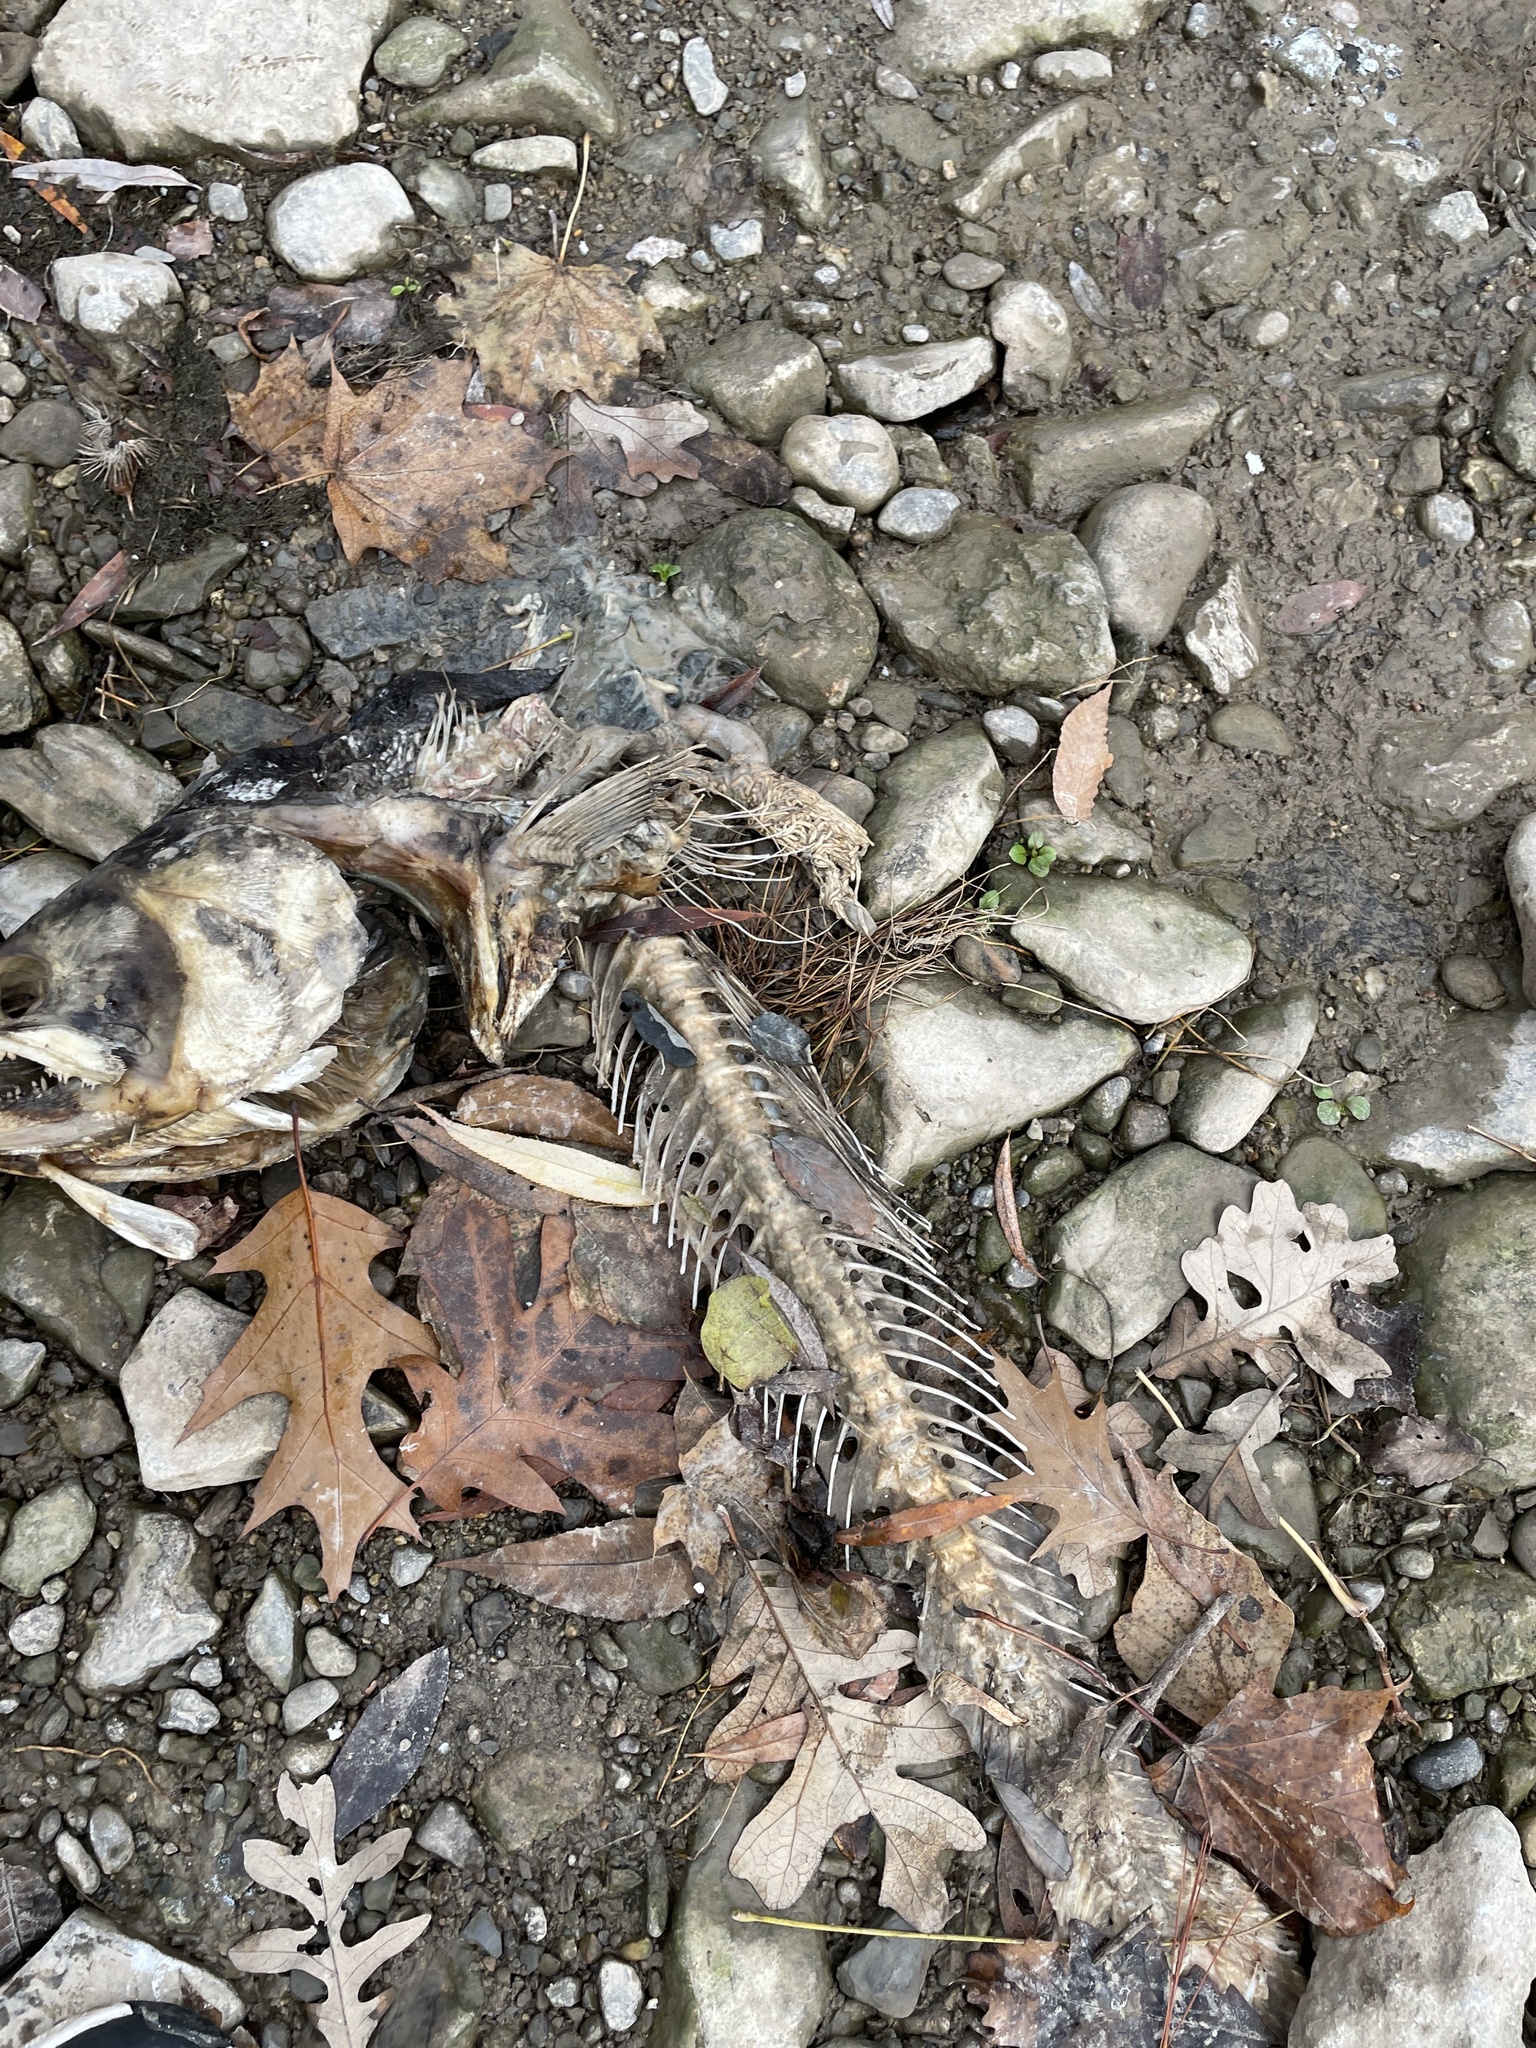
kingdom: Animalia
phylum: Chordata
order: Salmoniformes
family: Salmonidae
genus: Oncorhynchus
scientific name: Oncorhynchus tshawytscha
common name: Chinook salmon
